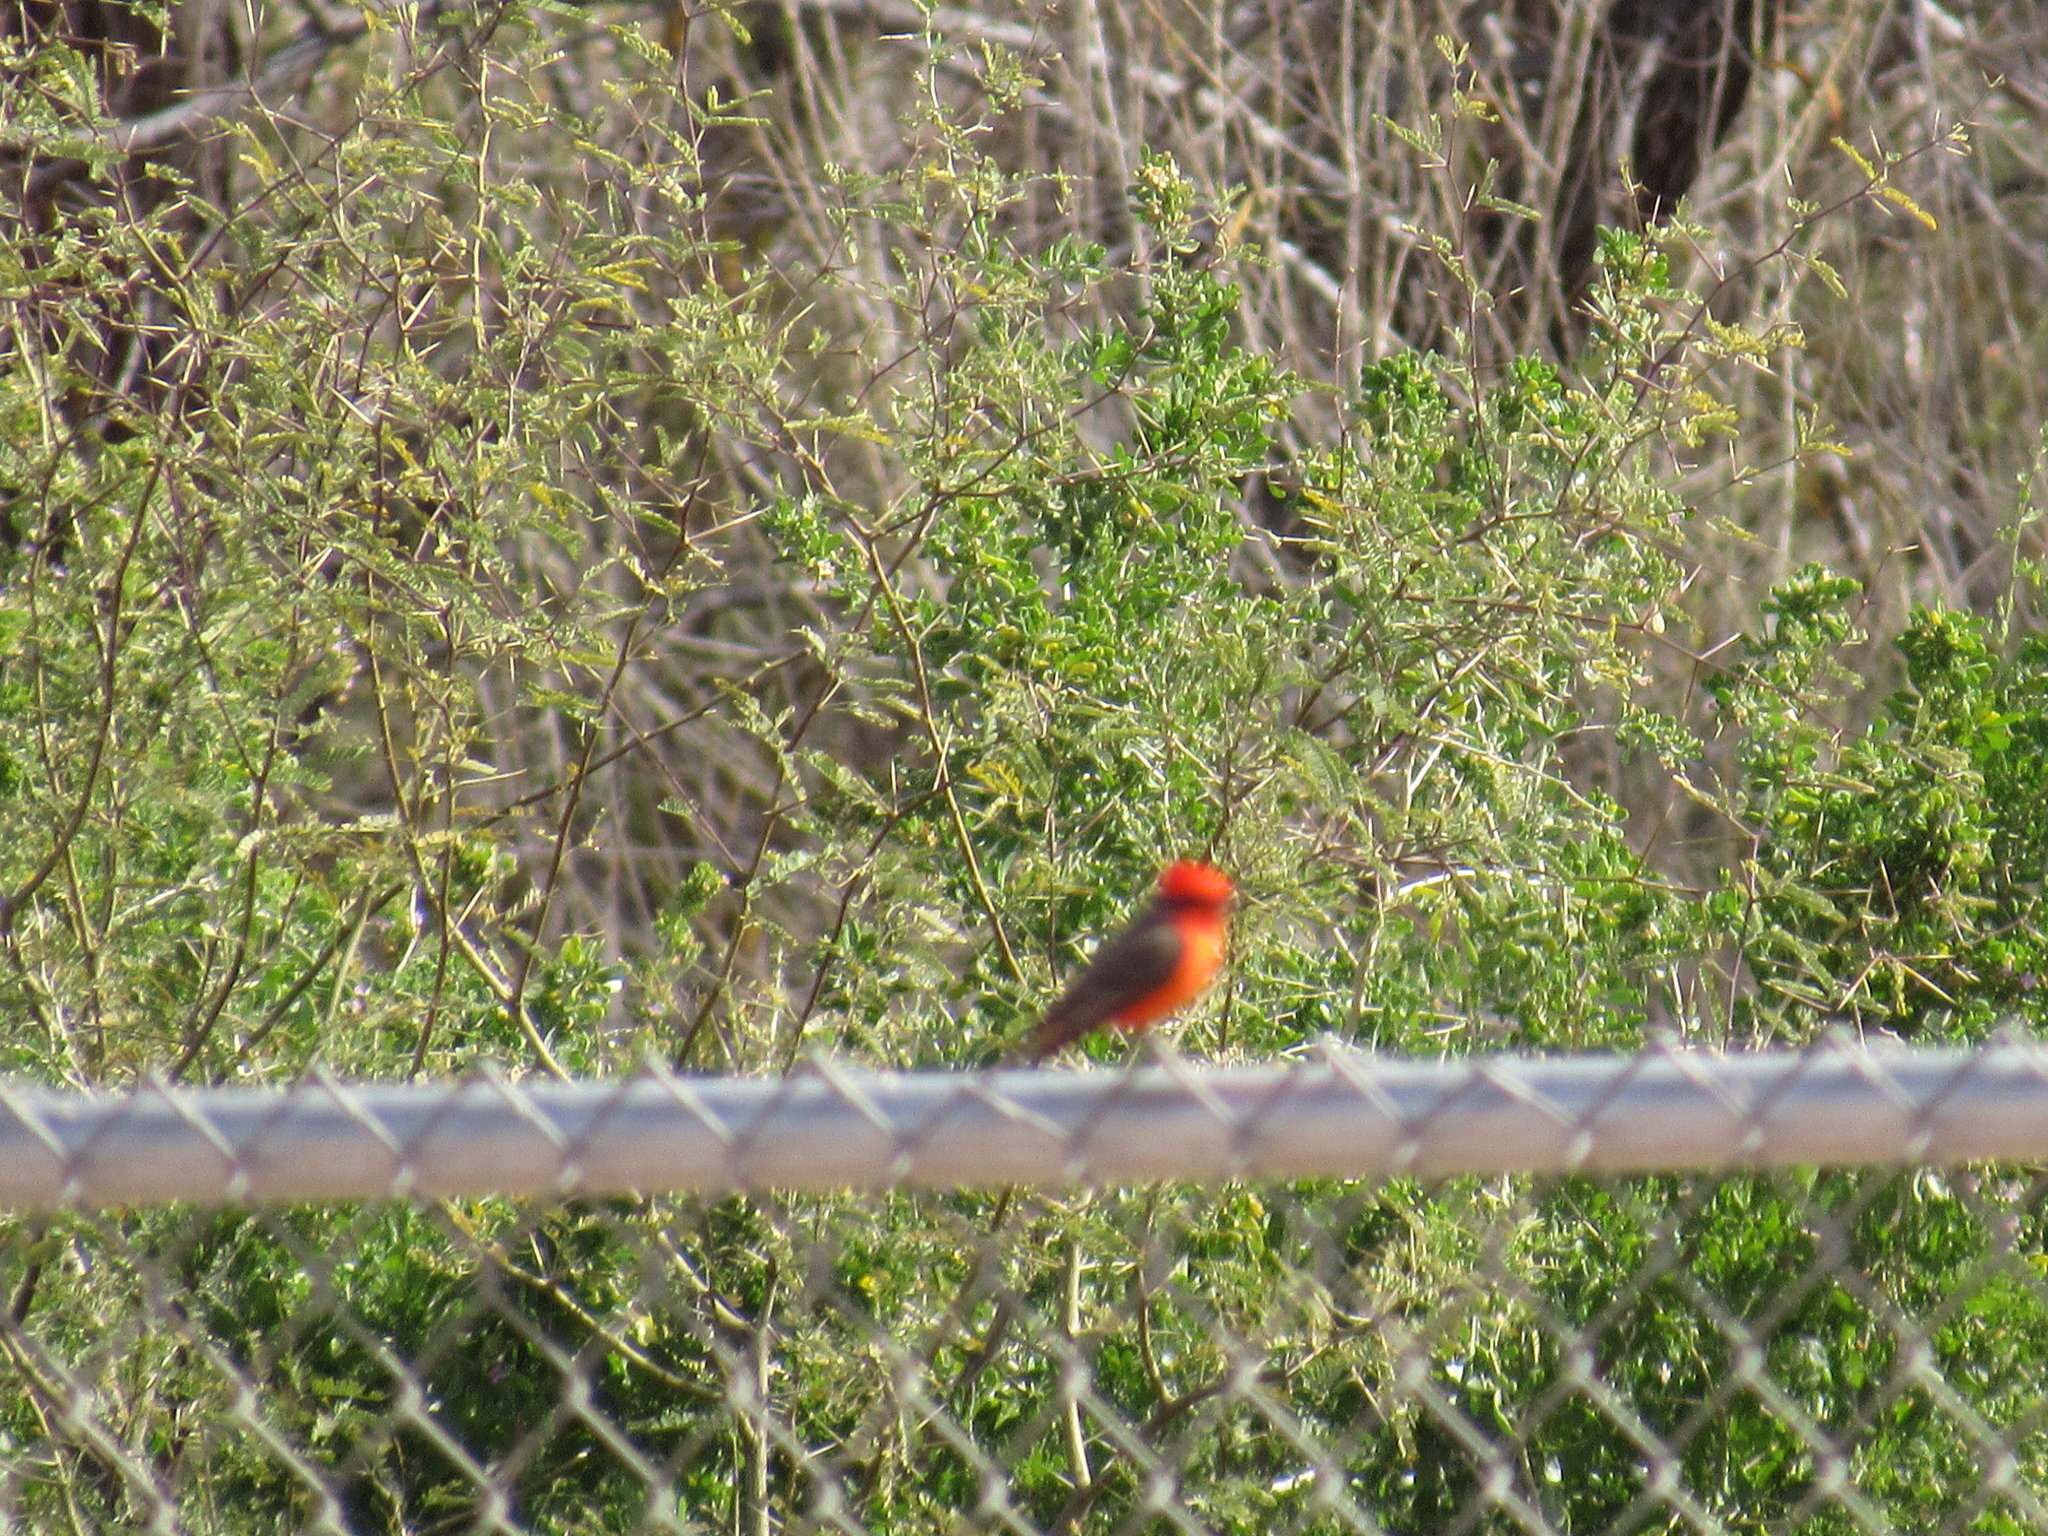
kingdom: Animalia
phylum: Chordata
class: Aves
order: Passeriformes
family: Tyrannidae
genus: Pyrocephalus
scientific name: Pyrocephalus rubinus
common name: Vermilion flycatcher
